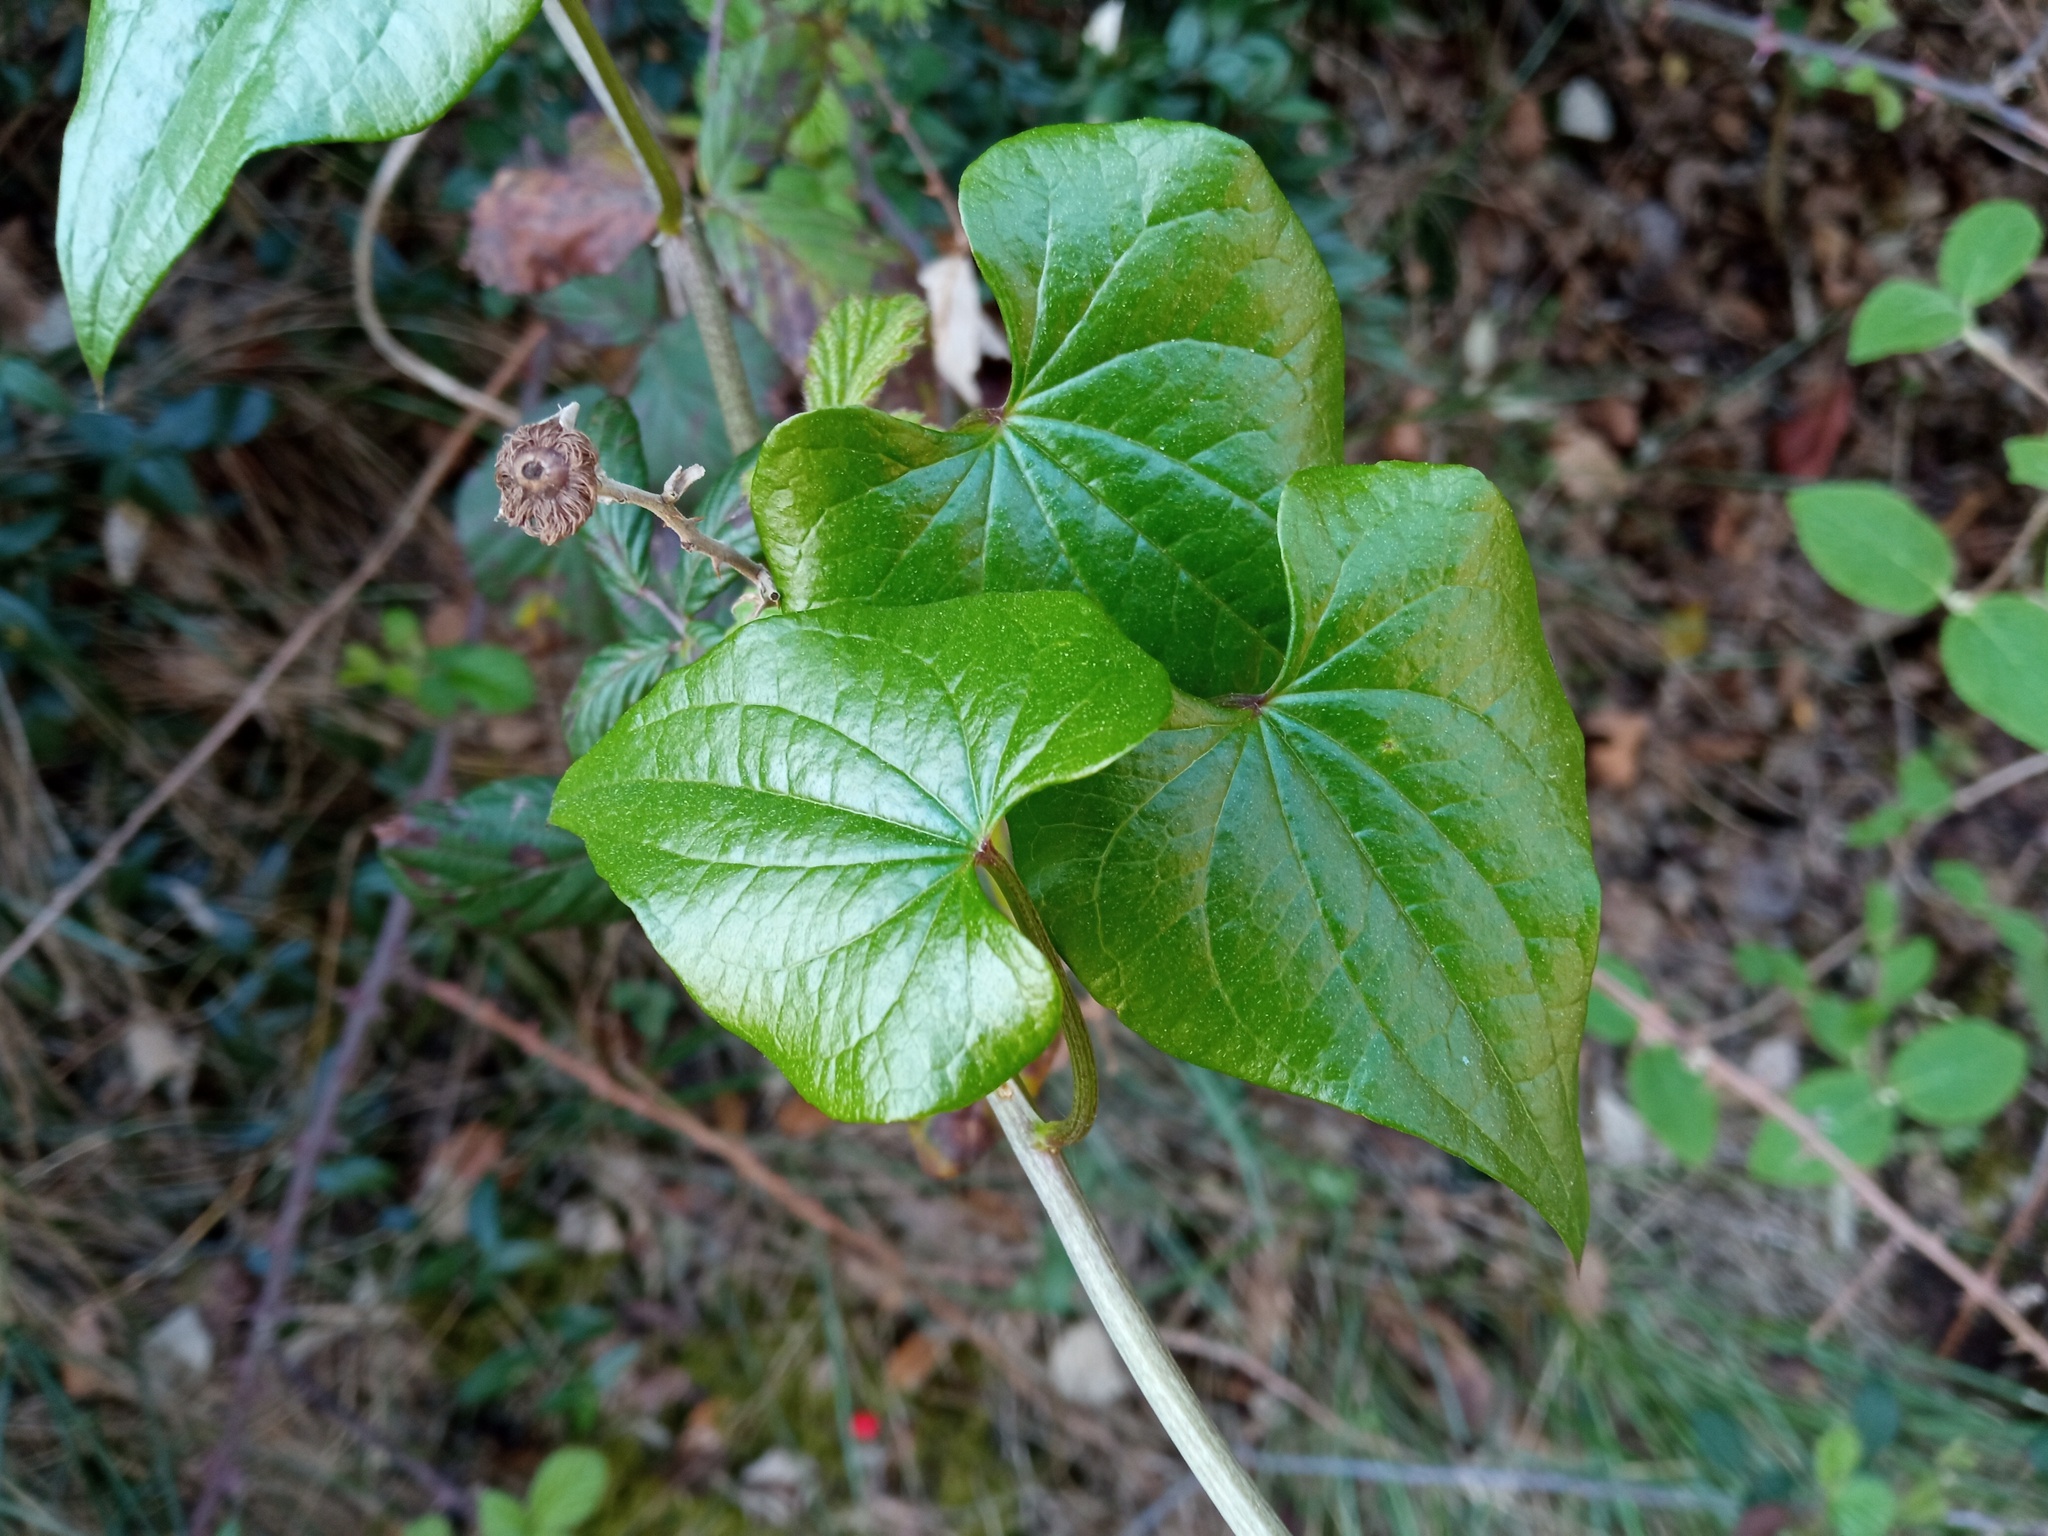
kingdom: Plantae
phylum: Tracheophyta
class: Liliopsida
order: Dioscoreales
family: Dioscoreaceae
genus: Dioscorea
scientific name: Dioscorea communis
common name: Black-bindweed
